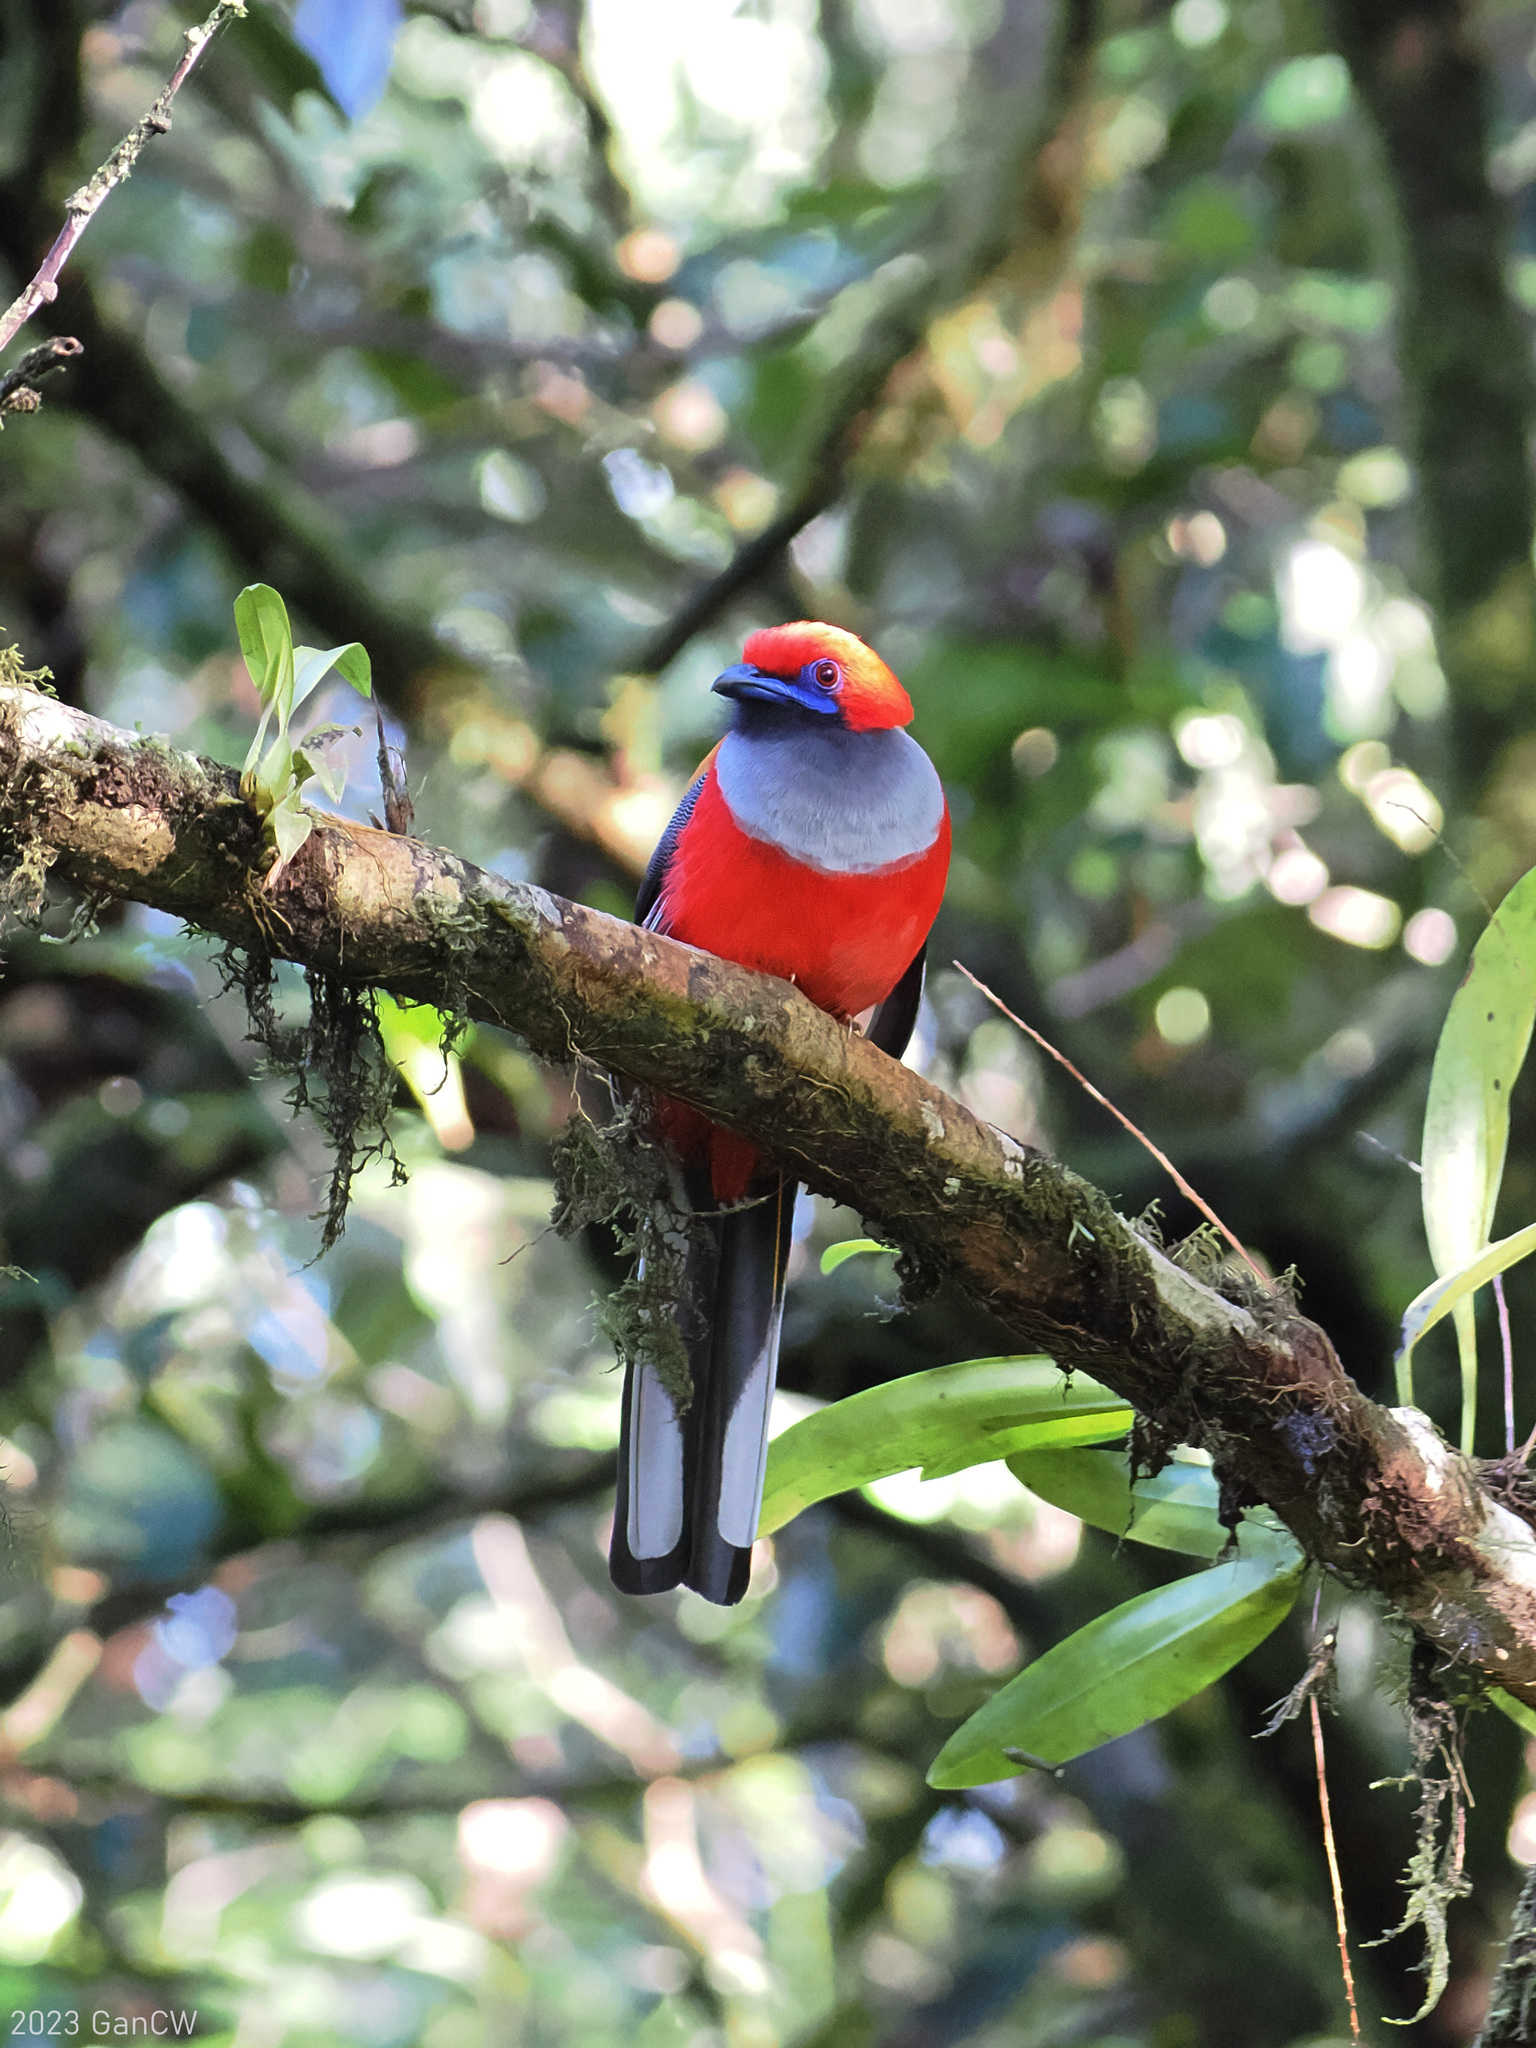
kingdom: Animalia
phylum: Chordata
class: Aves
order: Trogoniformes
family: Trogonidae
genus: Harpactes
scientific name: Harpactes whiteheadi
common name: Whitehead's trogon
